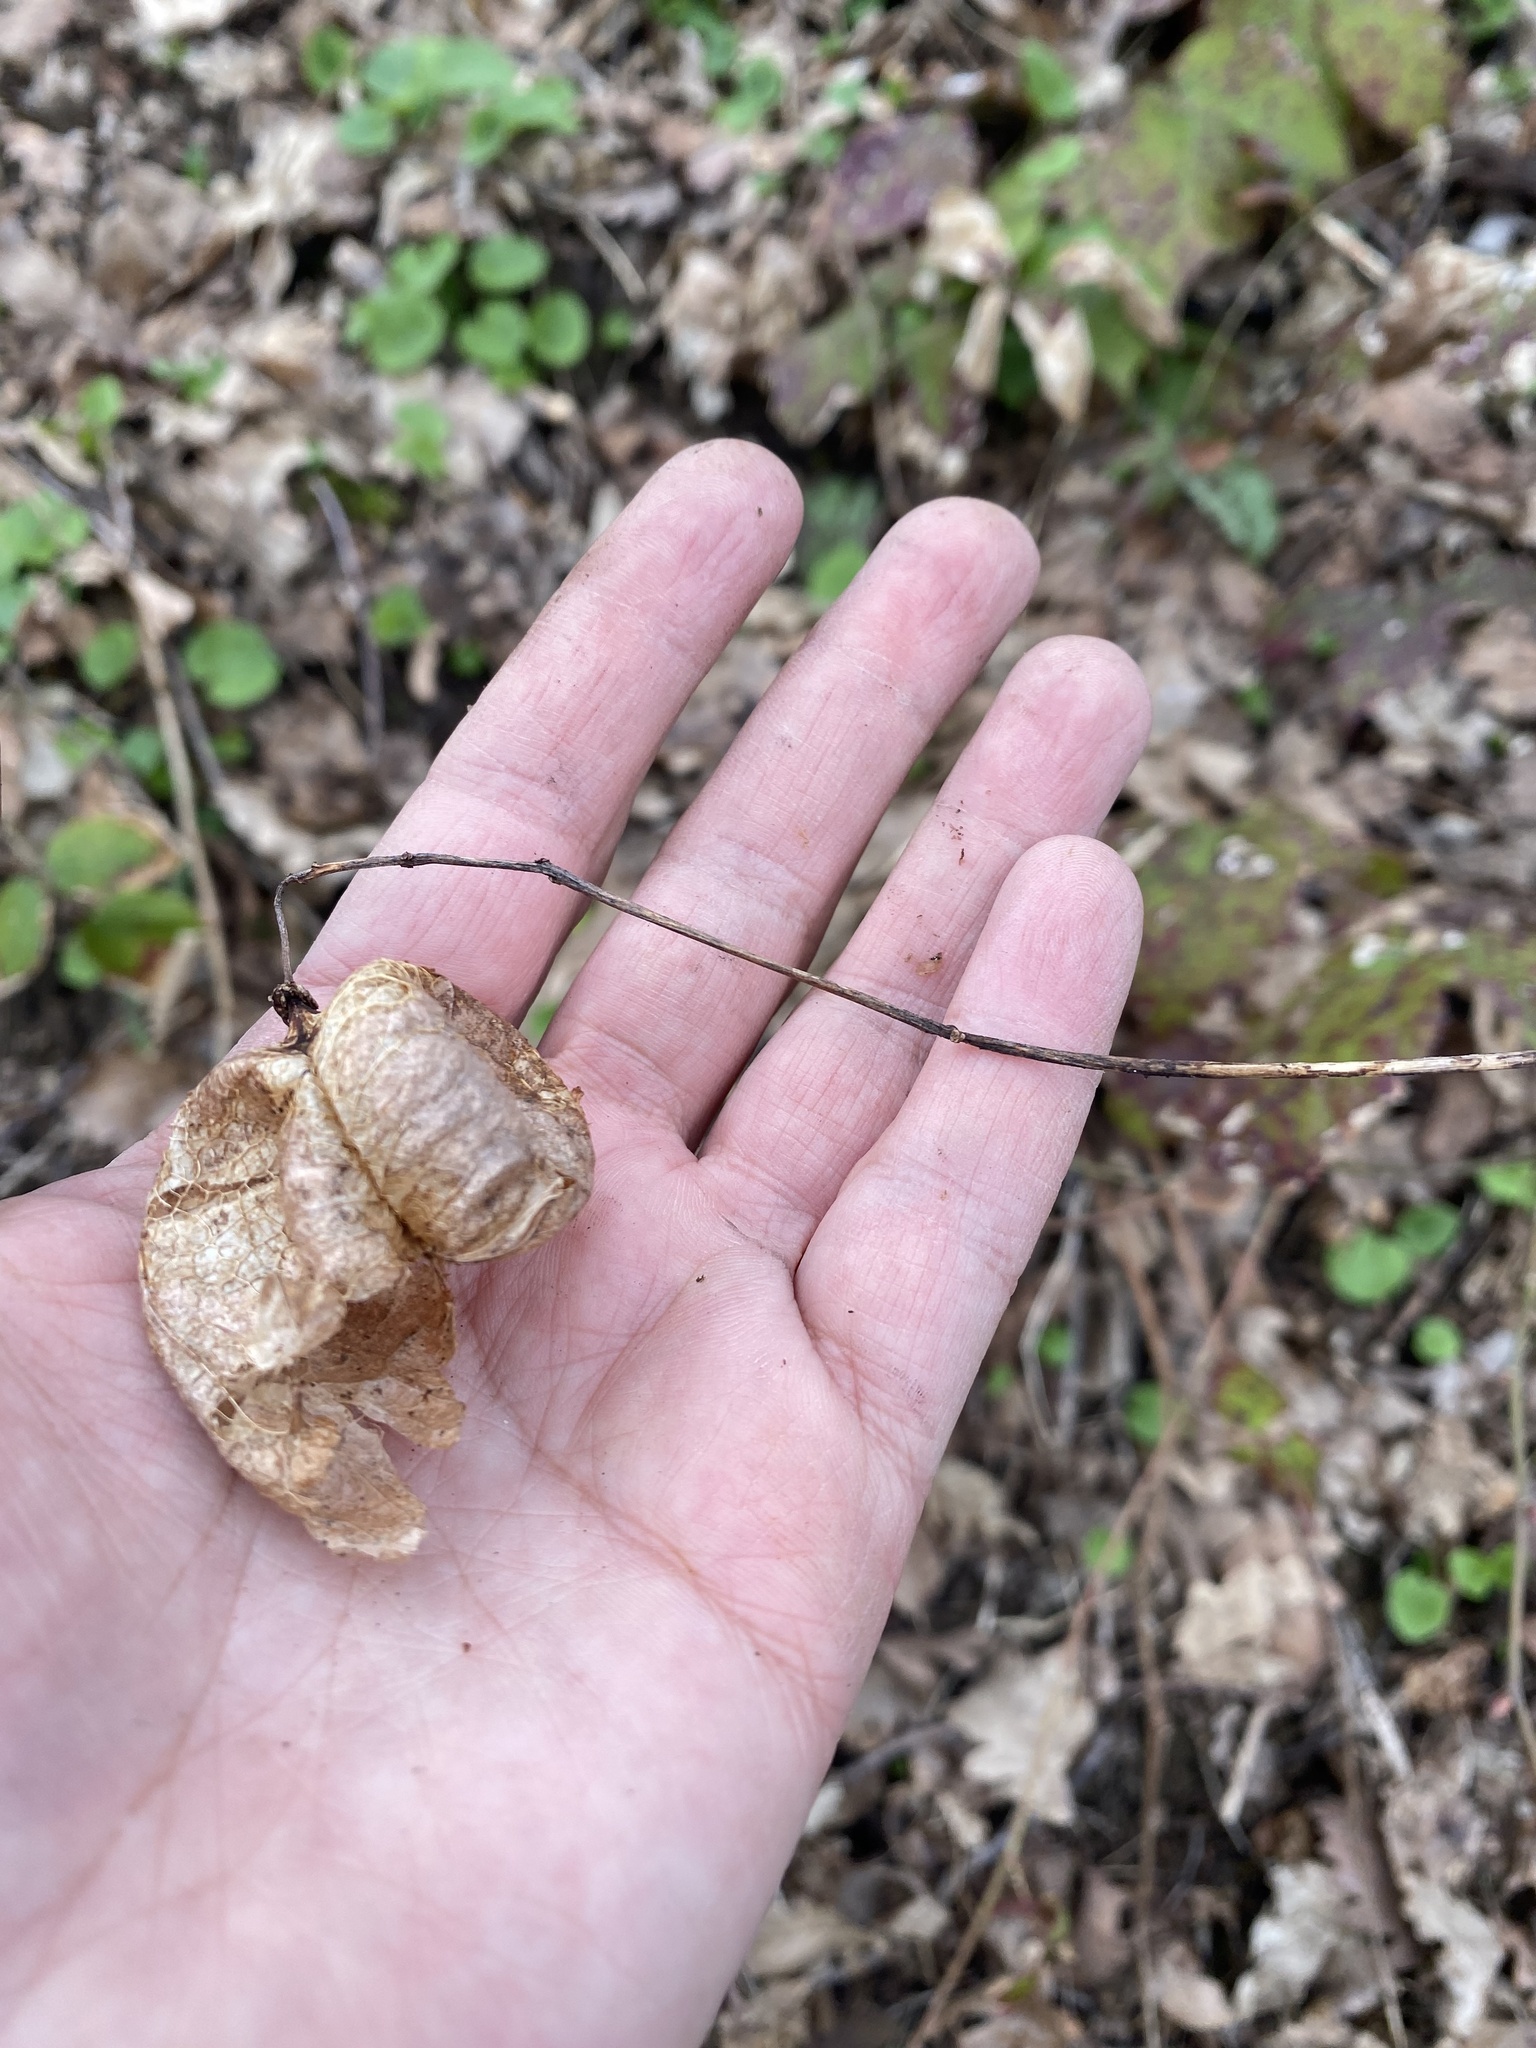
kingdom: Plantae
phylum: Tracheophyta
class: Magnoliopsida
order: Crossosomatales
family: Staphyleaceae
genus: Staphylea
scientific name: Staphylea pinnata
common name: Bladdernut
